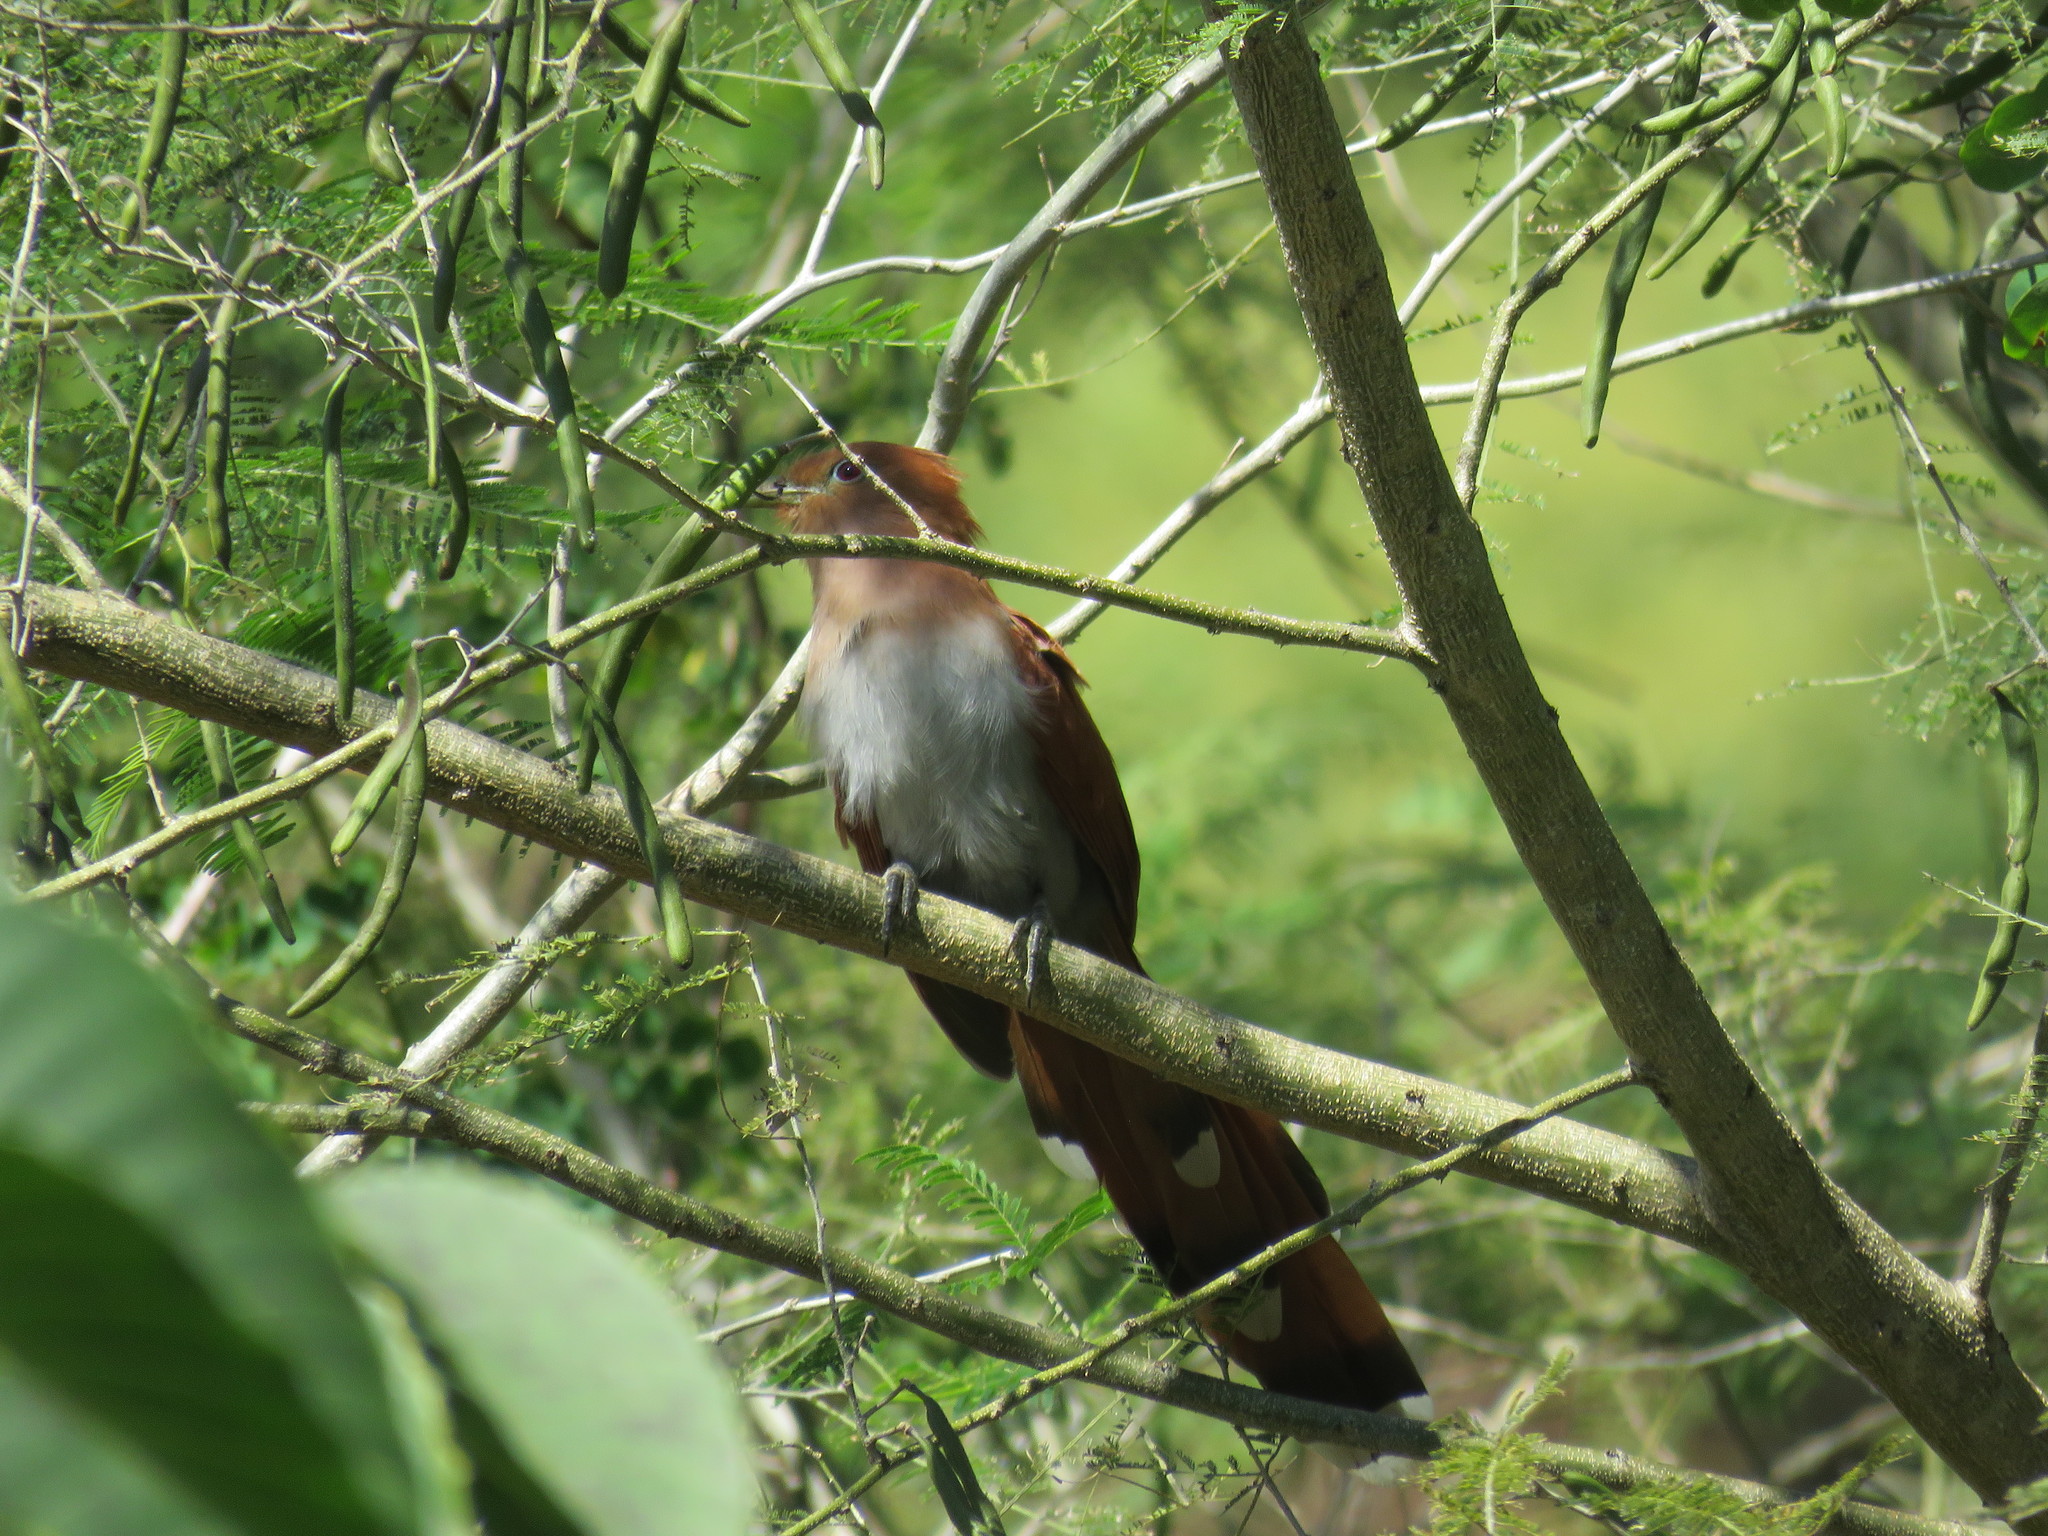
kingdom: Animalia
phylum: Chordata
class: Aves
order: Cuculiformes
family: Cuculidae
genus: Piaya
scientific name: Piaya cayana
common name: Squirrel cuckoo
